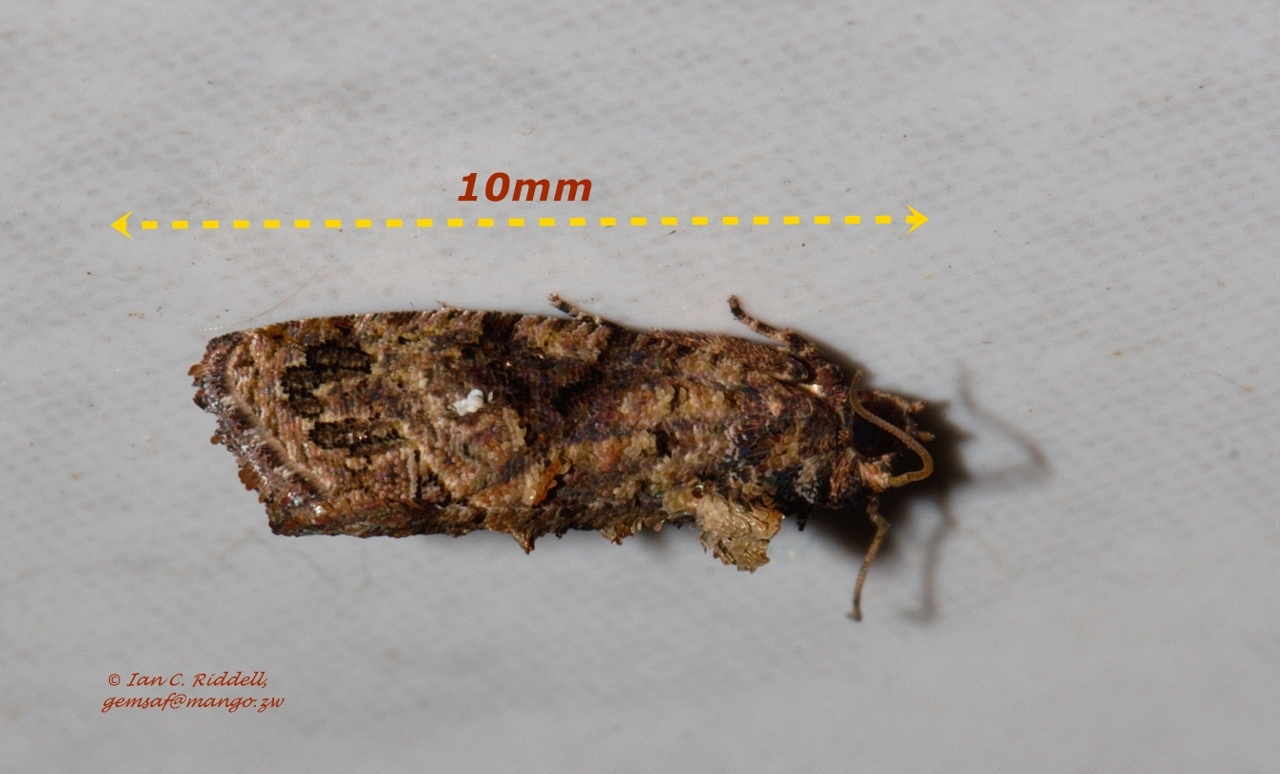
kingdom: Animalia
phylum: Arthropoda
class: Insecta
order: Lepidoptera
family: Tortricidae
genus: Thaumatotibia
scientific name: Thaumatotibia leucotreta
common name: False codling moth
